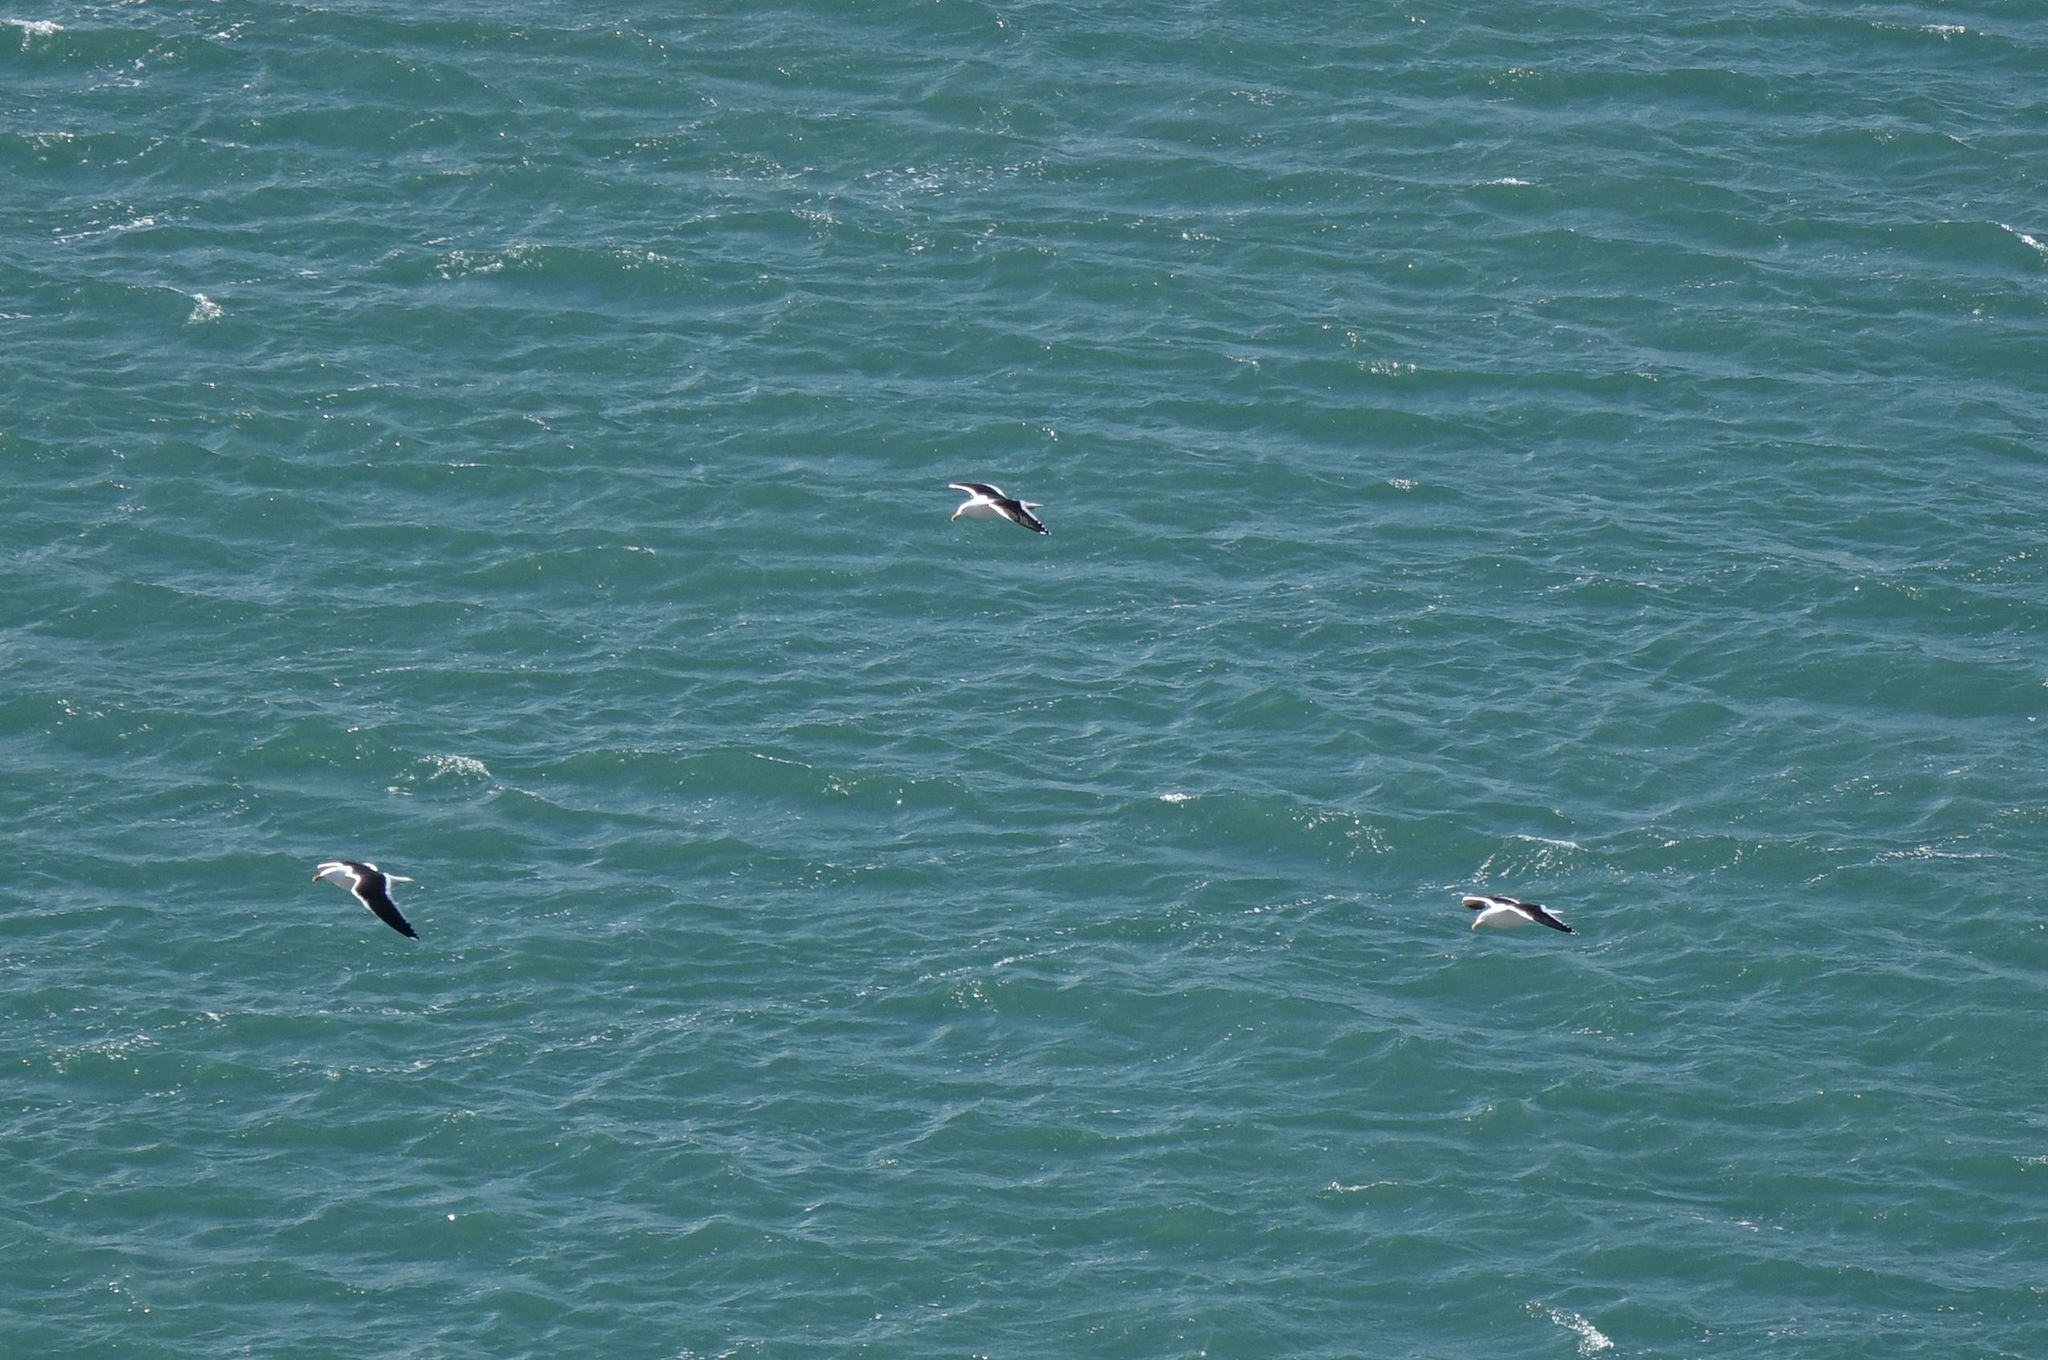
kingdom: Animalia
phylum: Chordata
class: Aves
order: Charadriiformes
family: Laridae
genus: Larus
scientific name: Larus dominicanus
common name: Kelp gull
